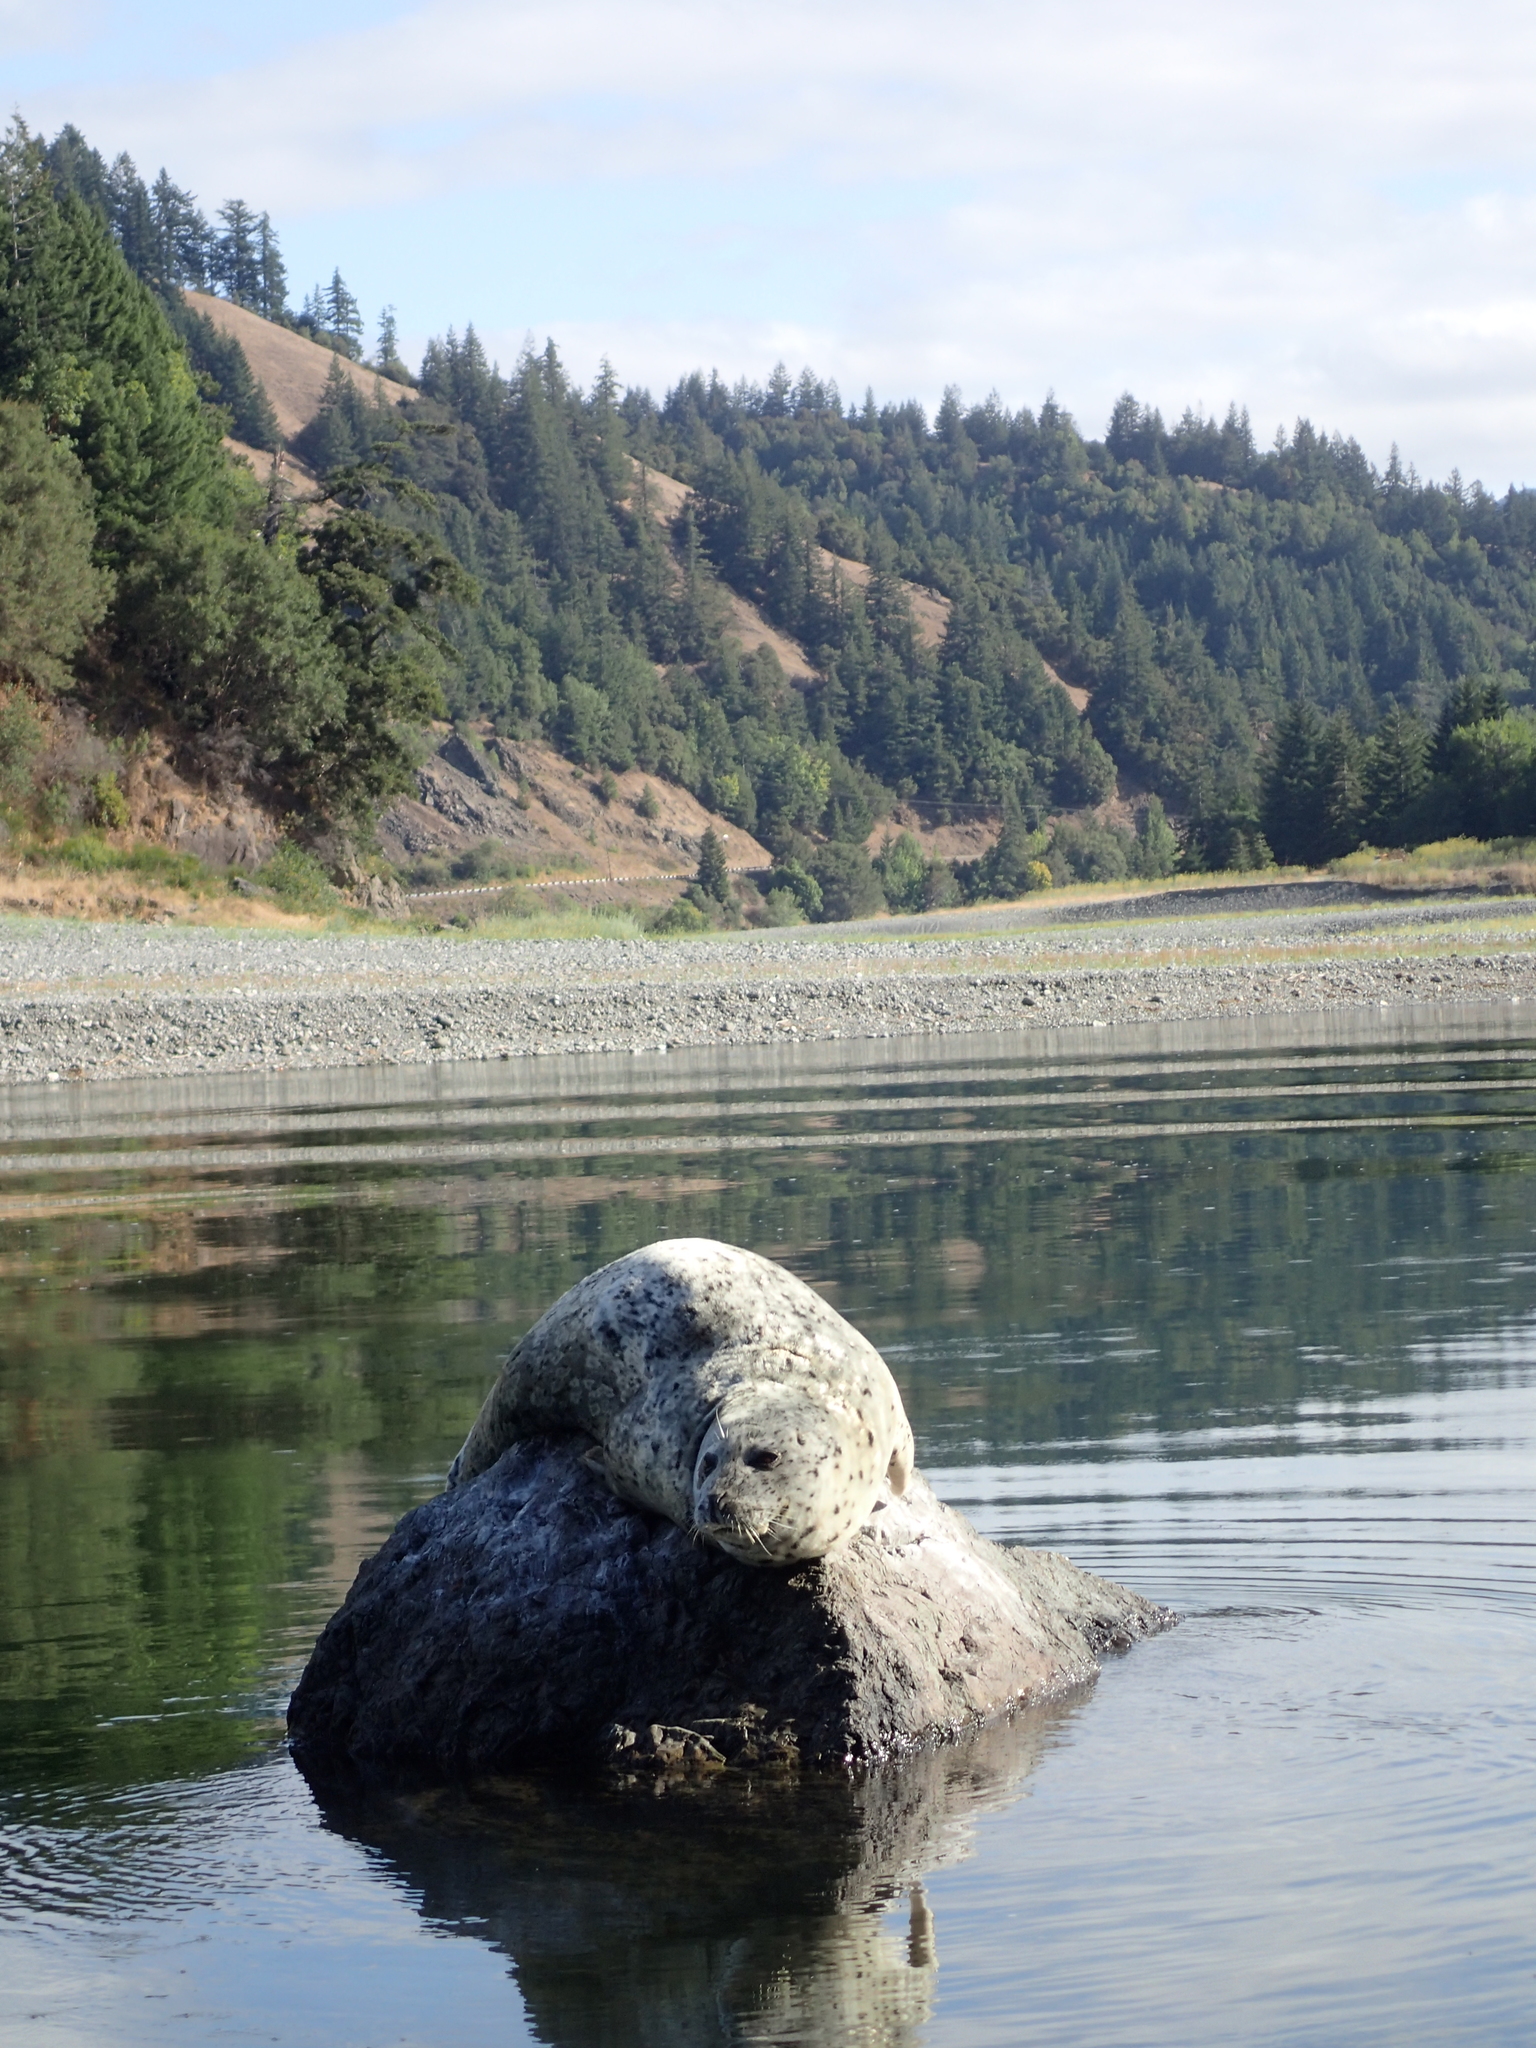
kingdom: Animalia
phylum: Chordata
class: Mammalia
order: Carnivora
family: Phocidae
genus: Phoca
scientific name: Phoca vitulina
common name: Harbor seal
